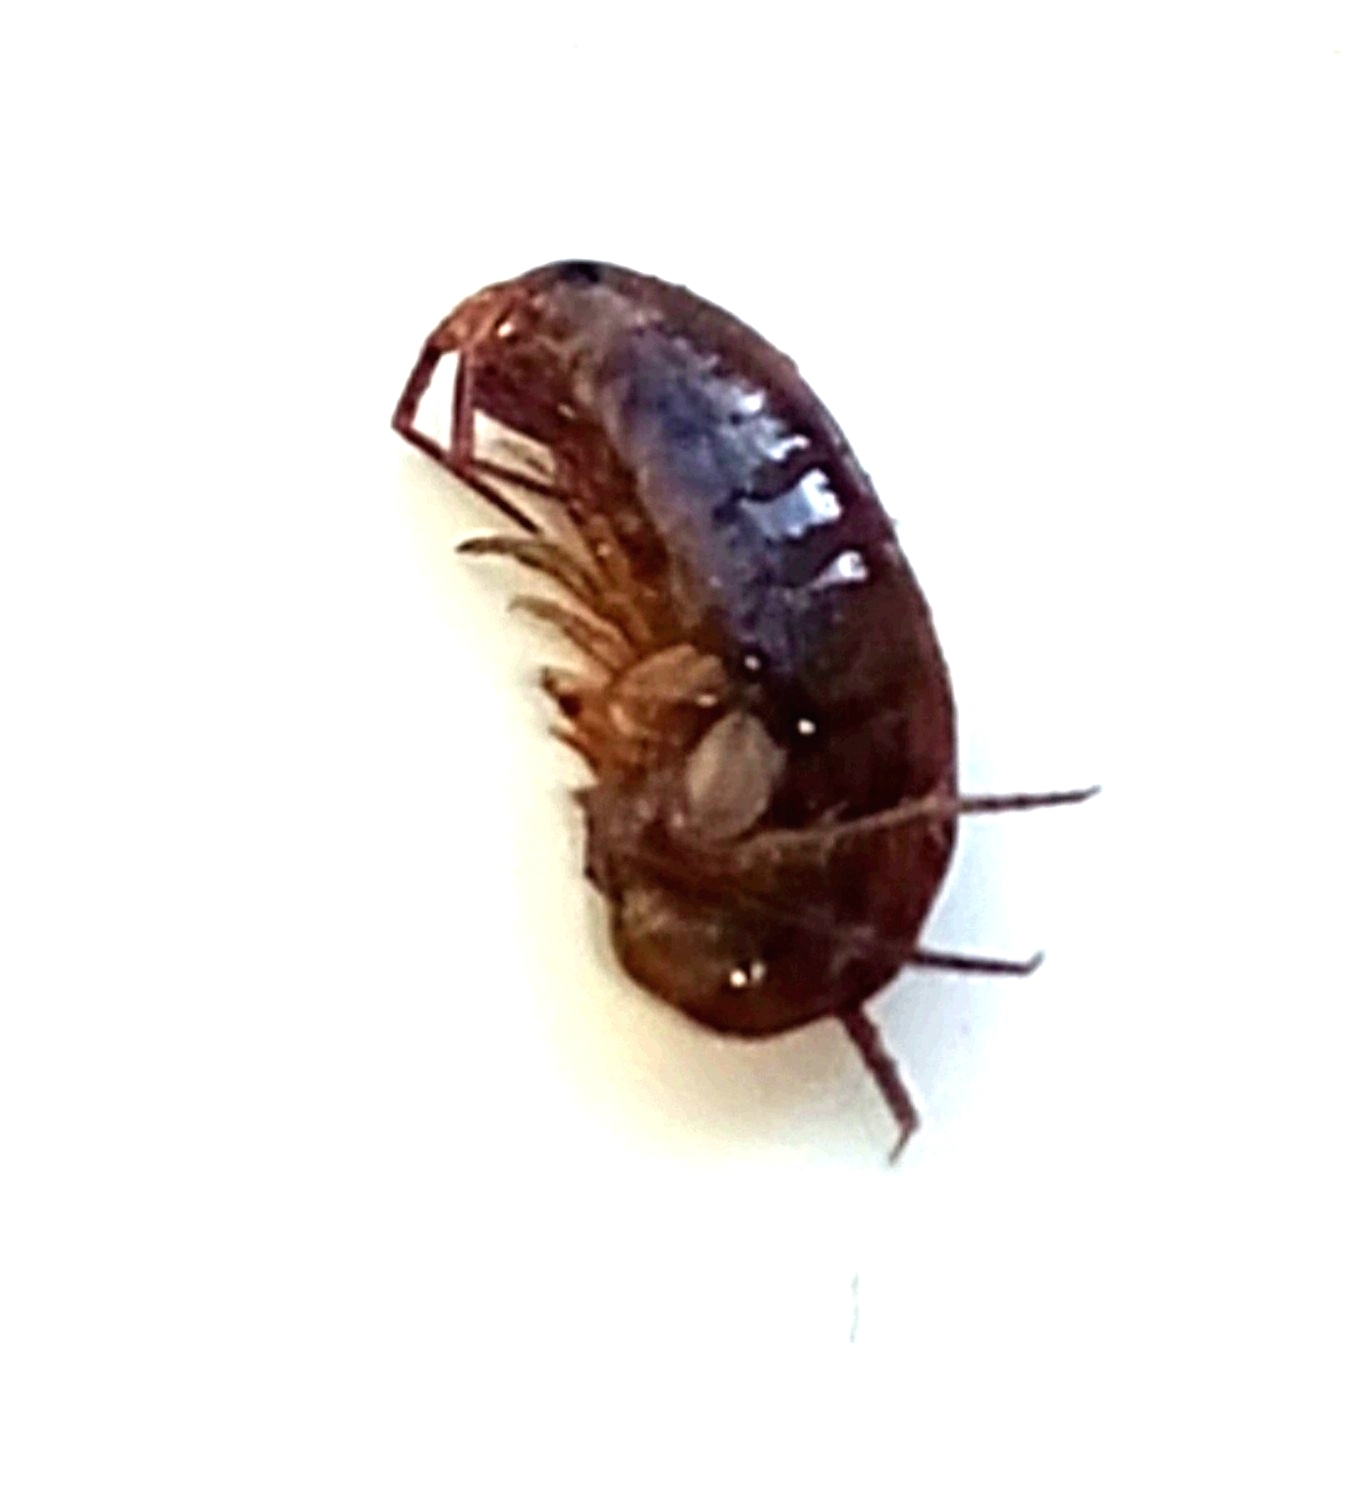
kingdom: Animalia
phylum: Arthropoda
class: Malacostraca
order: Amphipoda
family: Arcitalitridae
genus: Arcitalitrus
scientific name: Arcitalitrus dorrieni
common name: Landhopper
